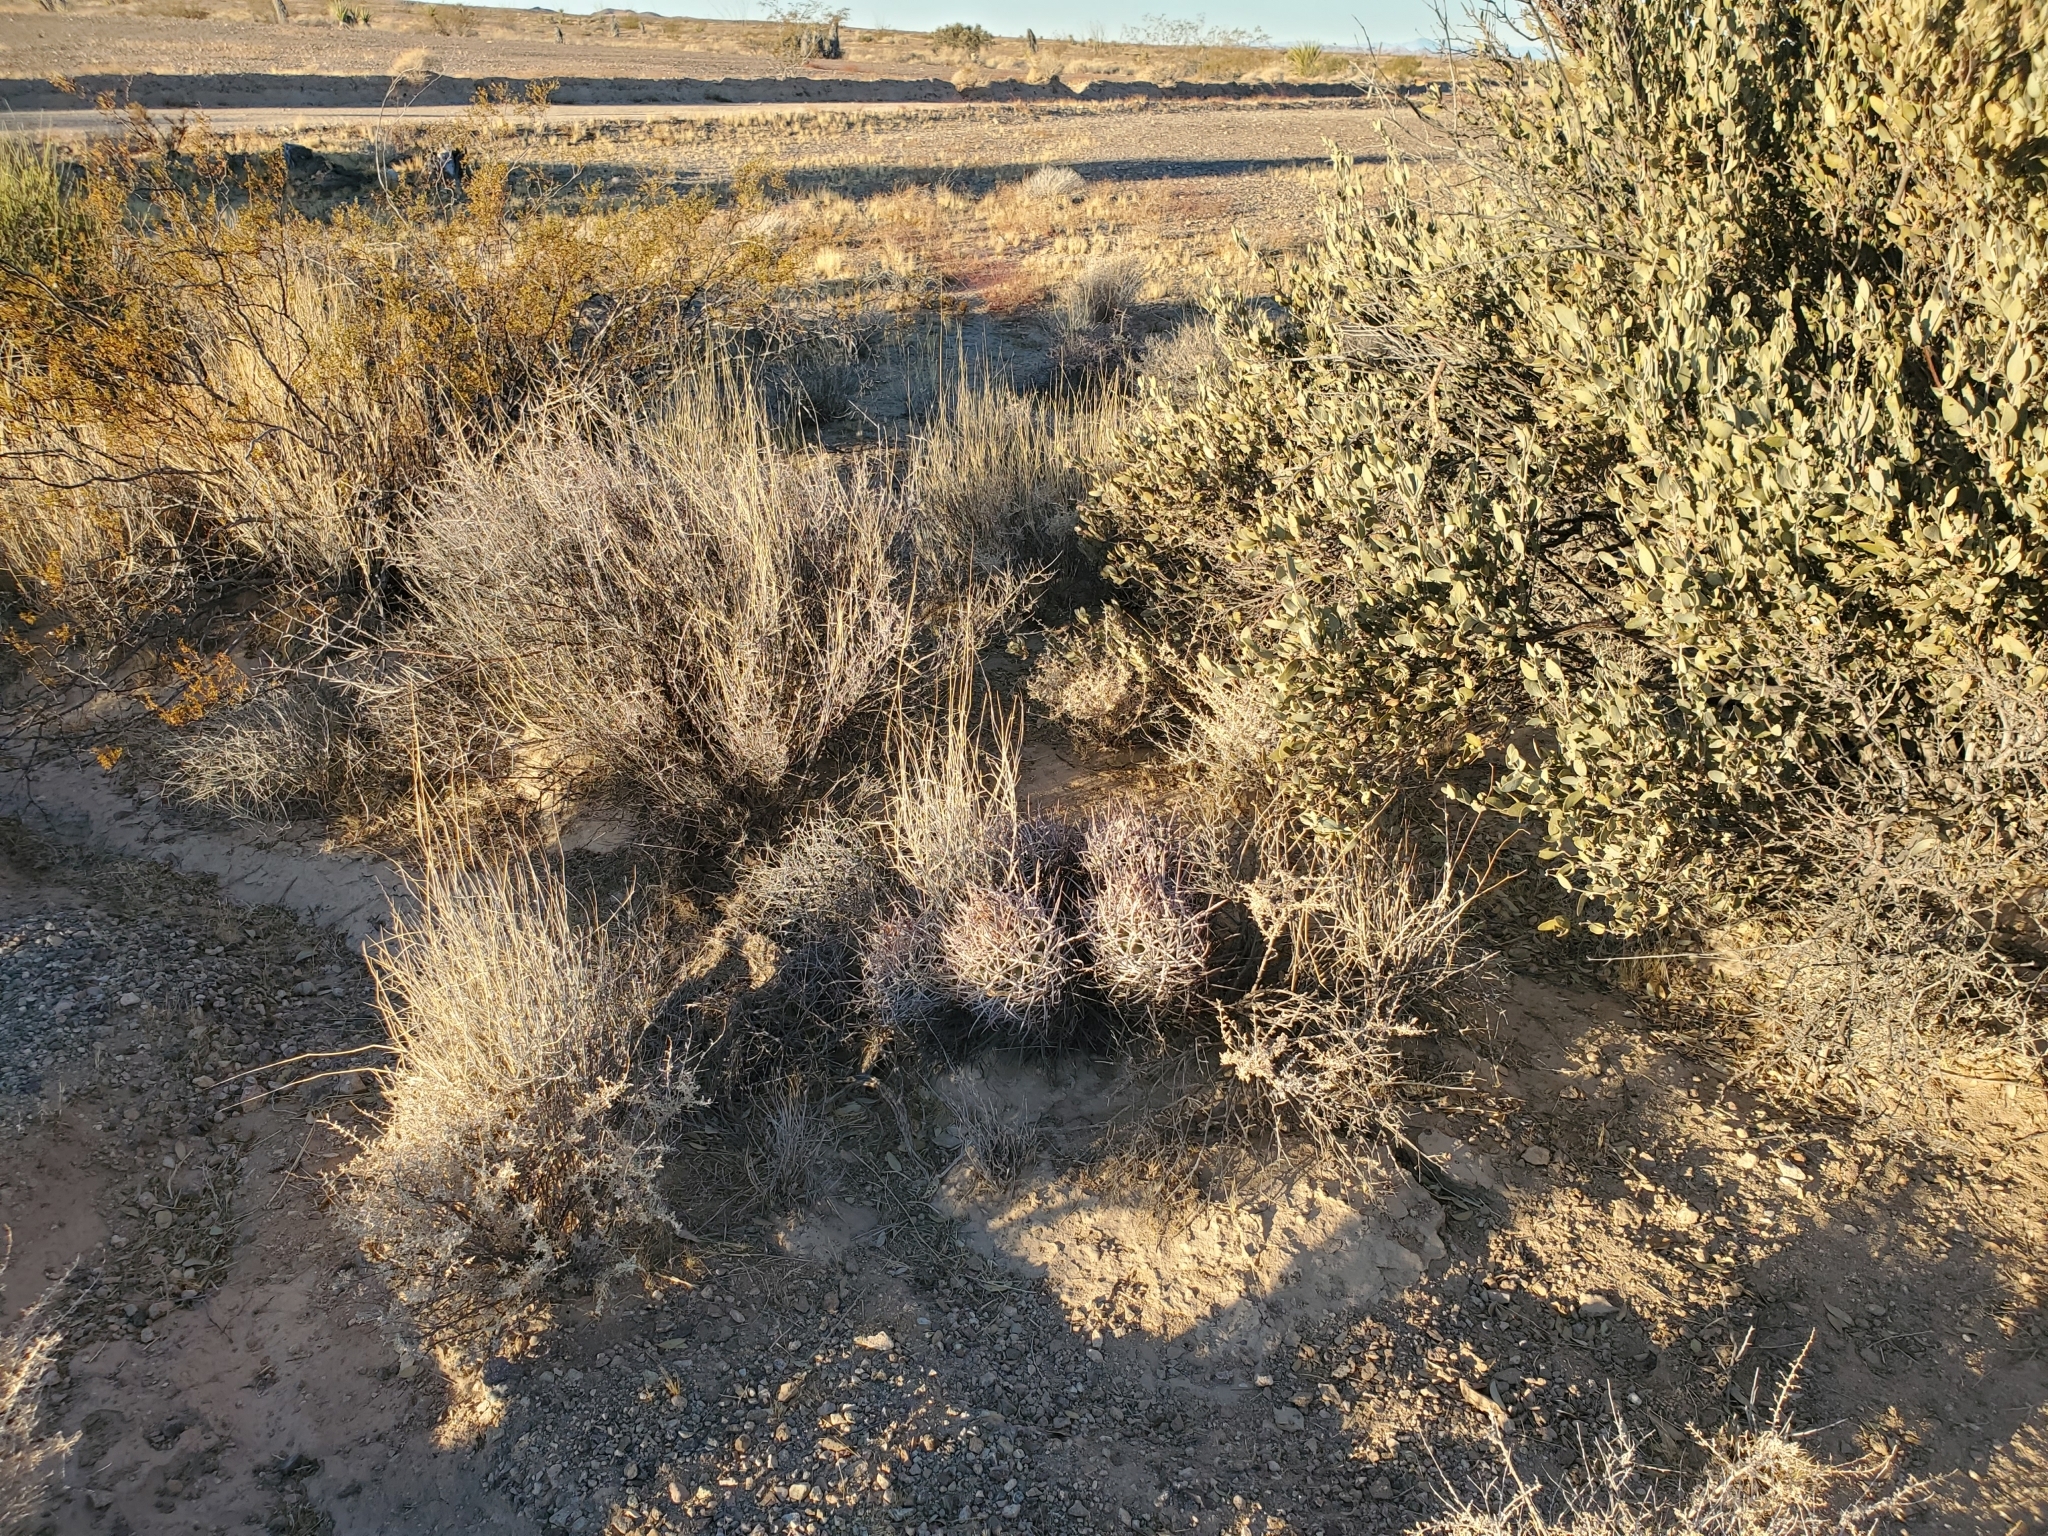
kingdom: Plantae
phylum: Tracheophyta
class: Magnoliopsida
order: Caryophyllales
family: Cactaceae
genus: Echinocactus
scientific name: Echinocactus polycephalus
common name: Cottontop cactus
